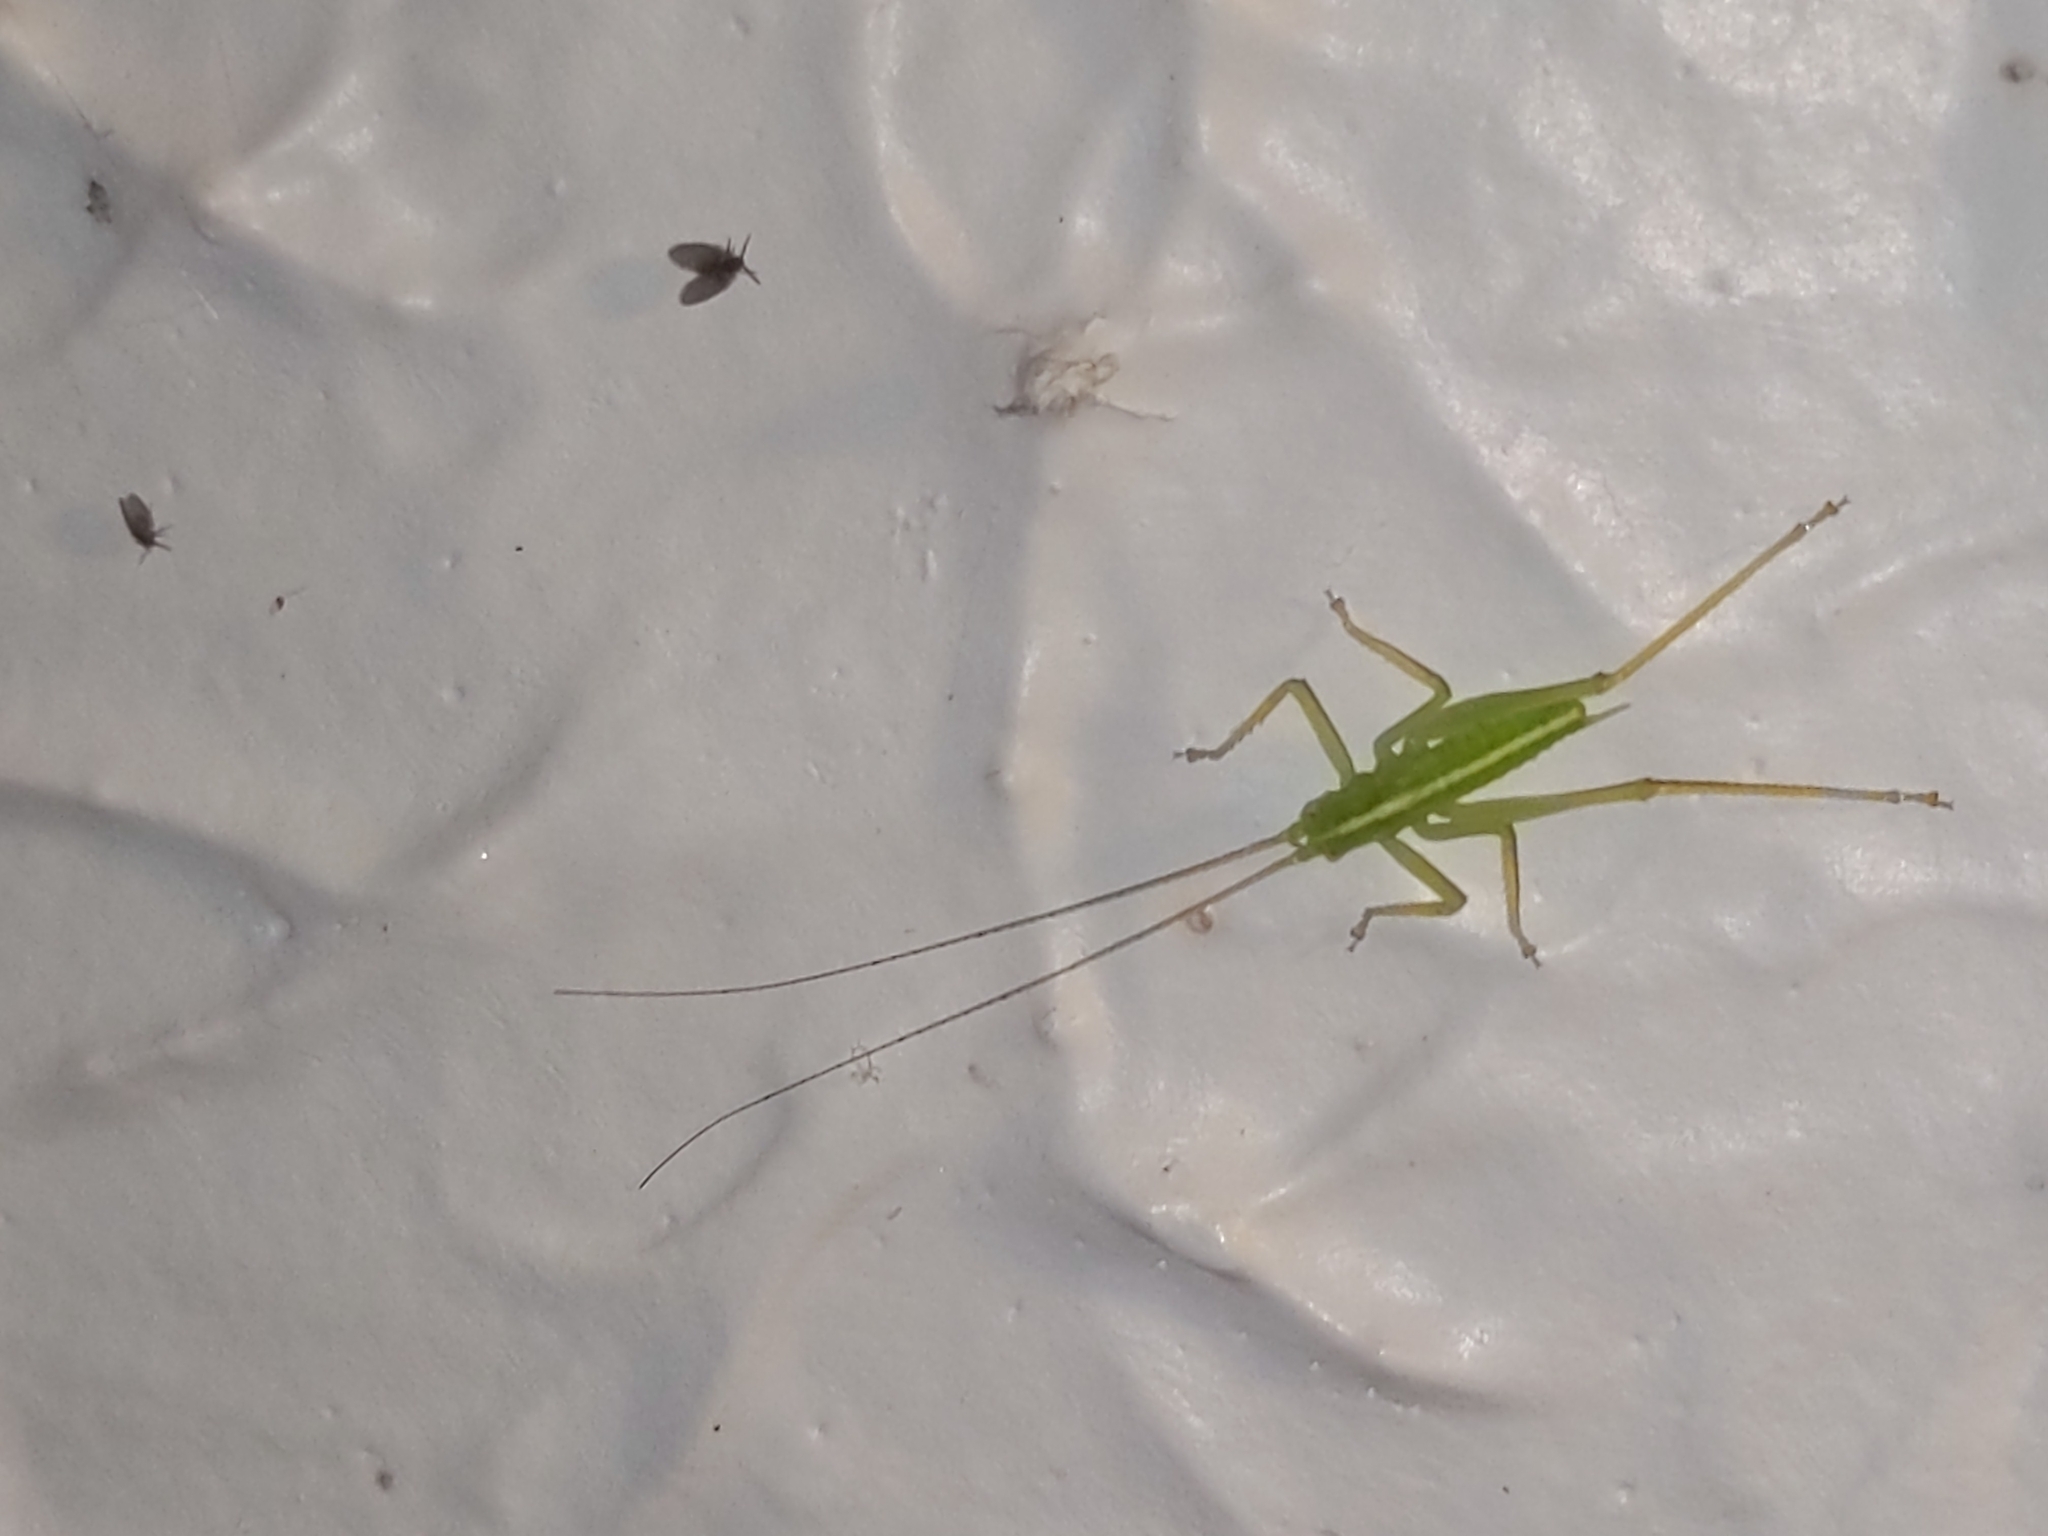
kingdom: Animalia
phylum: Arthropoda
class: Insecta
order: Orthoptera
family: Tettigoniidae
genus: Meconema
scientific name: Meconema thalassinum
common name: Oak bush-cricket
